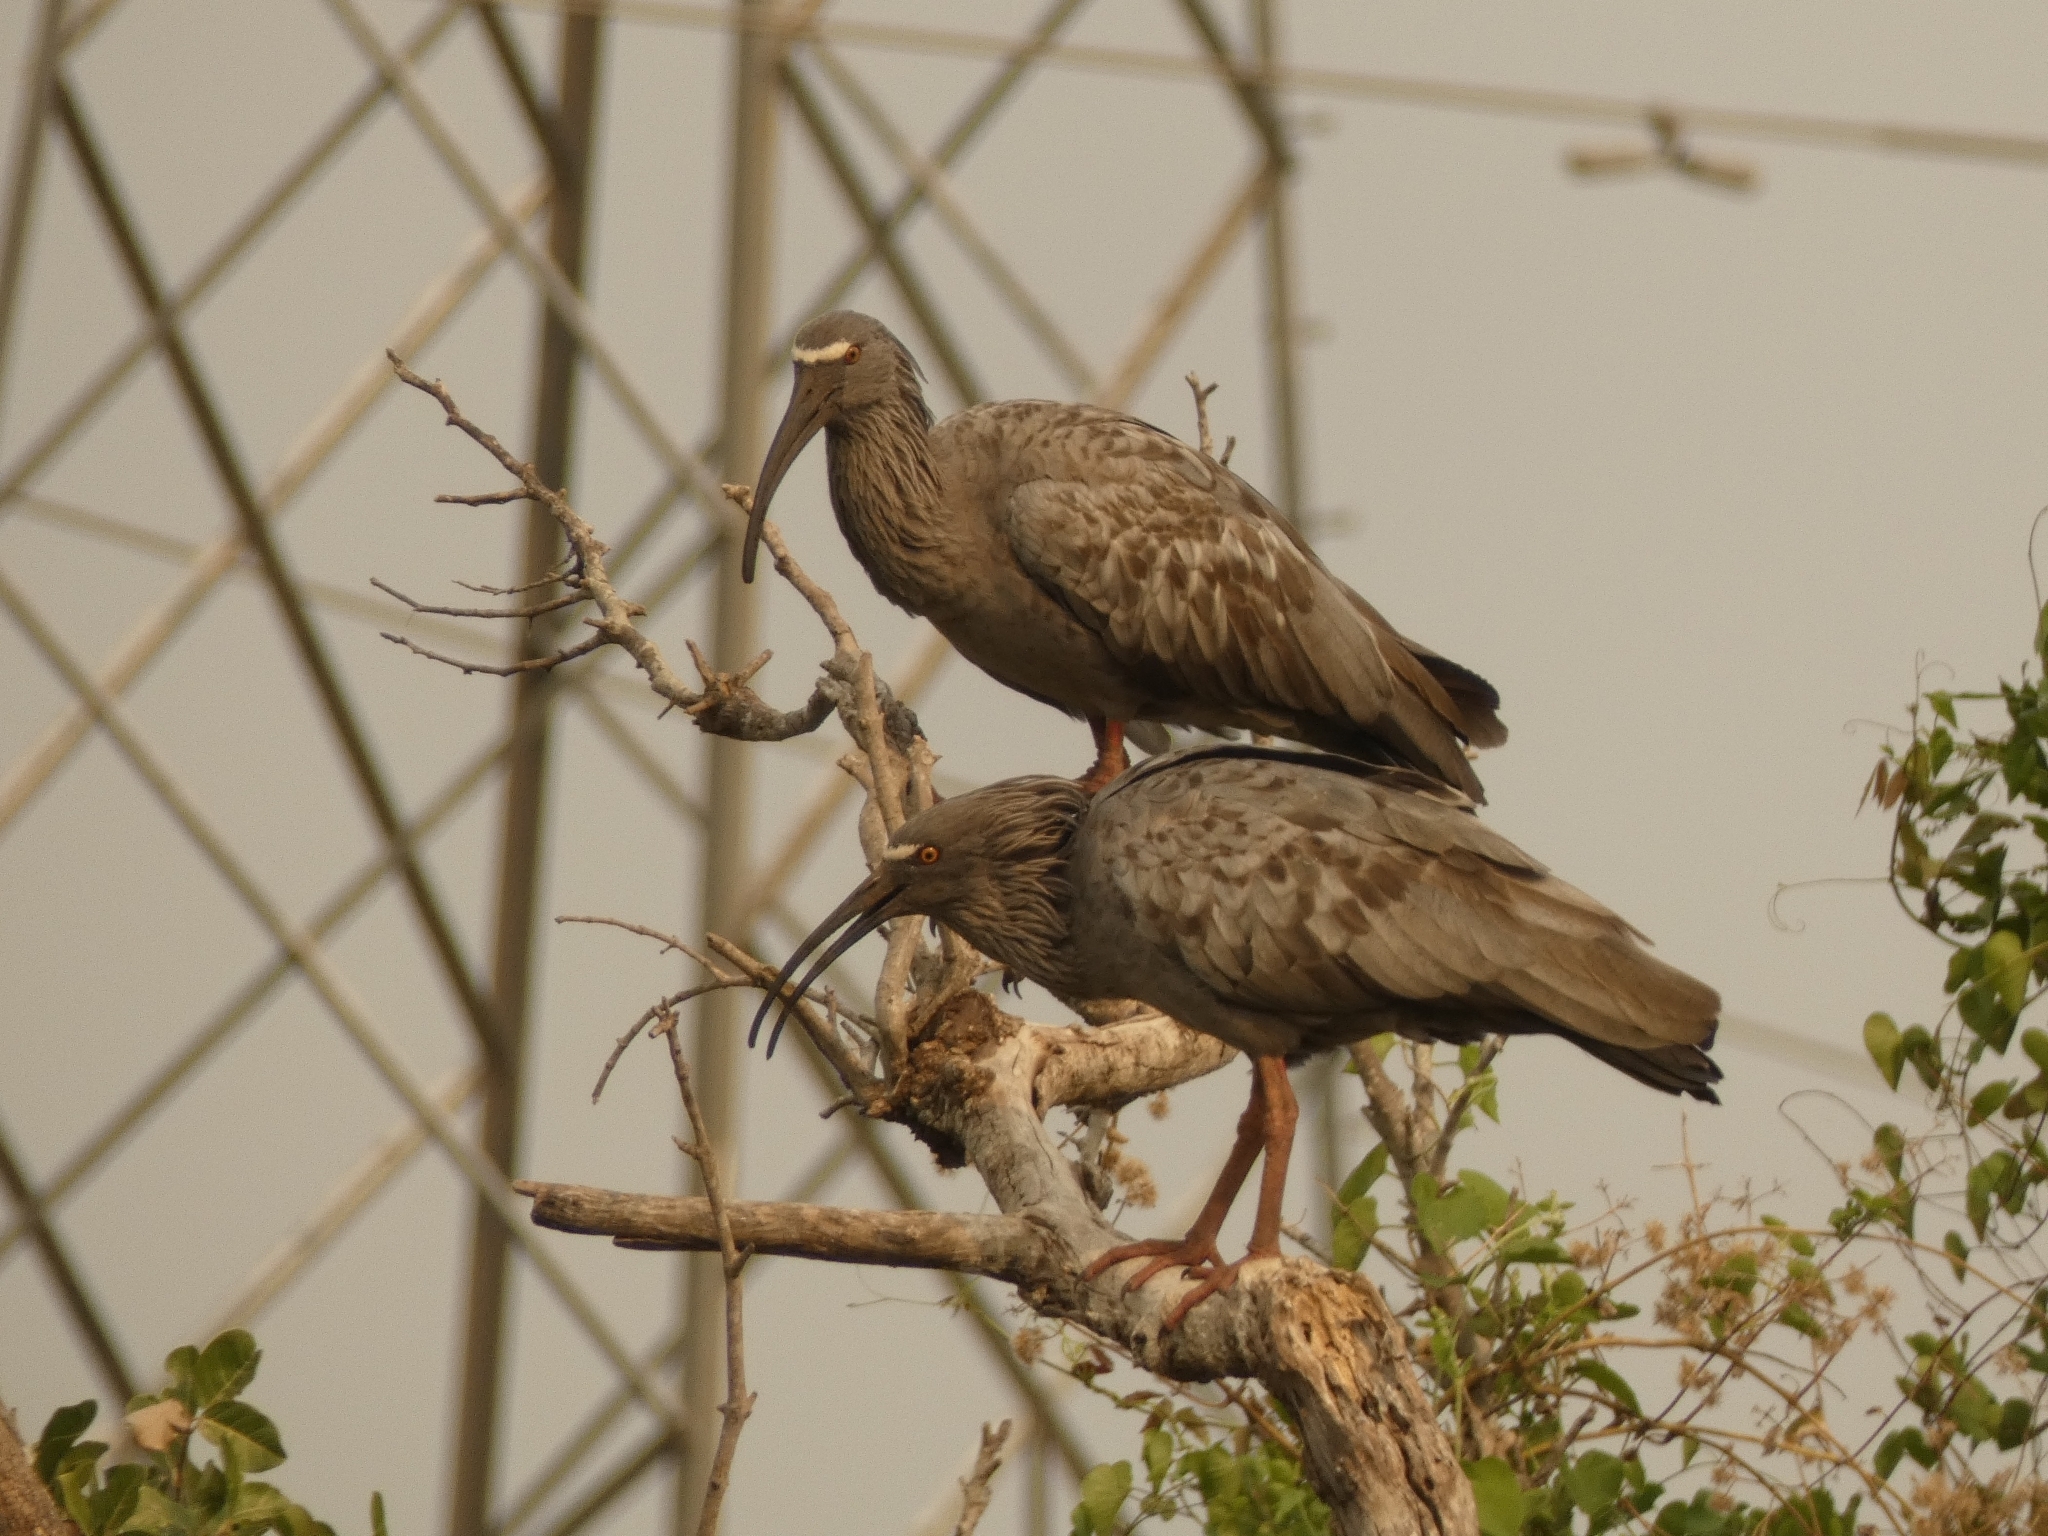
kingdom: Animalia
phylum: Chordata
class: Aves
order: Pelecaniformes
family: Threskiornithidae
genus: Theristicus
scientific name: Theristicus caerulescens
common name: Plumbeous ibis
